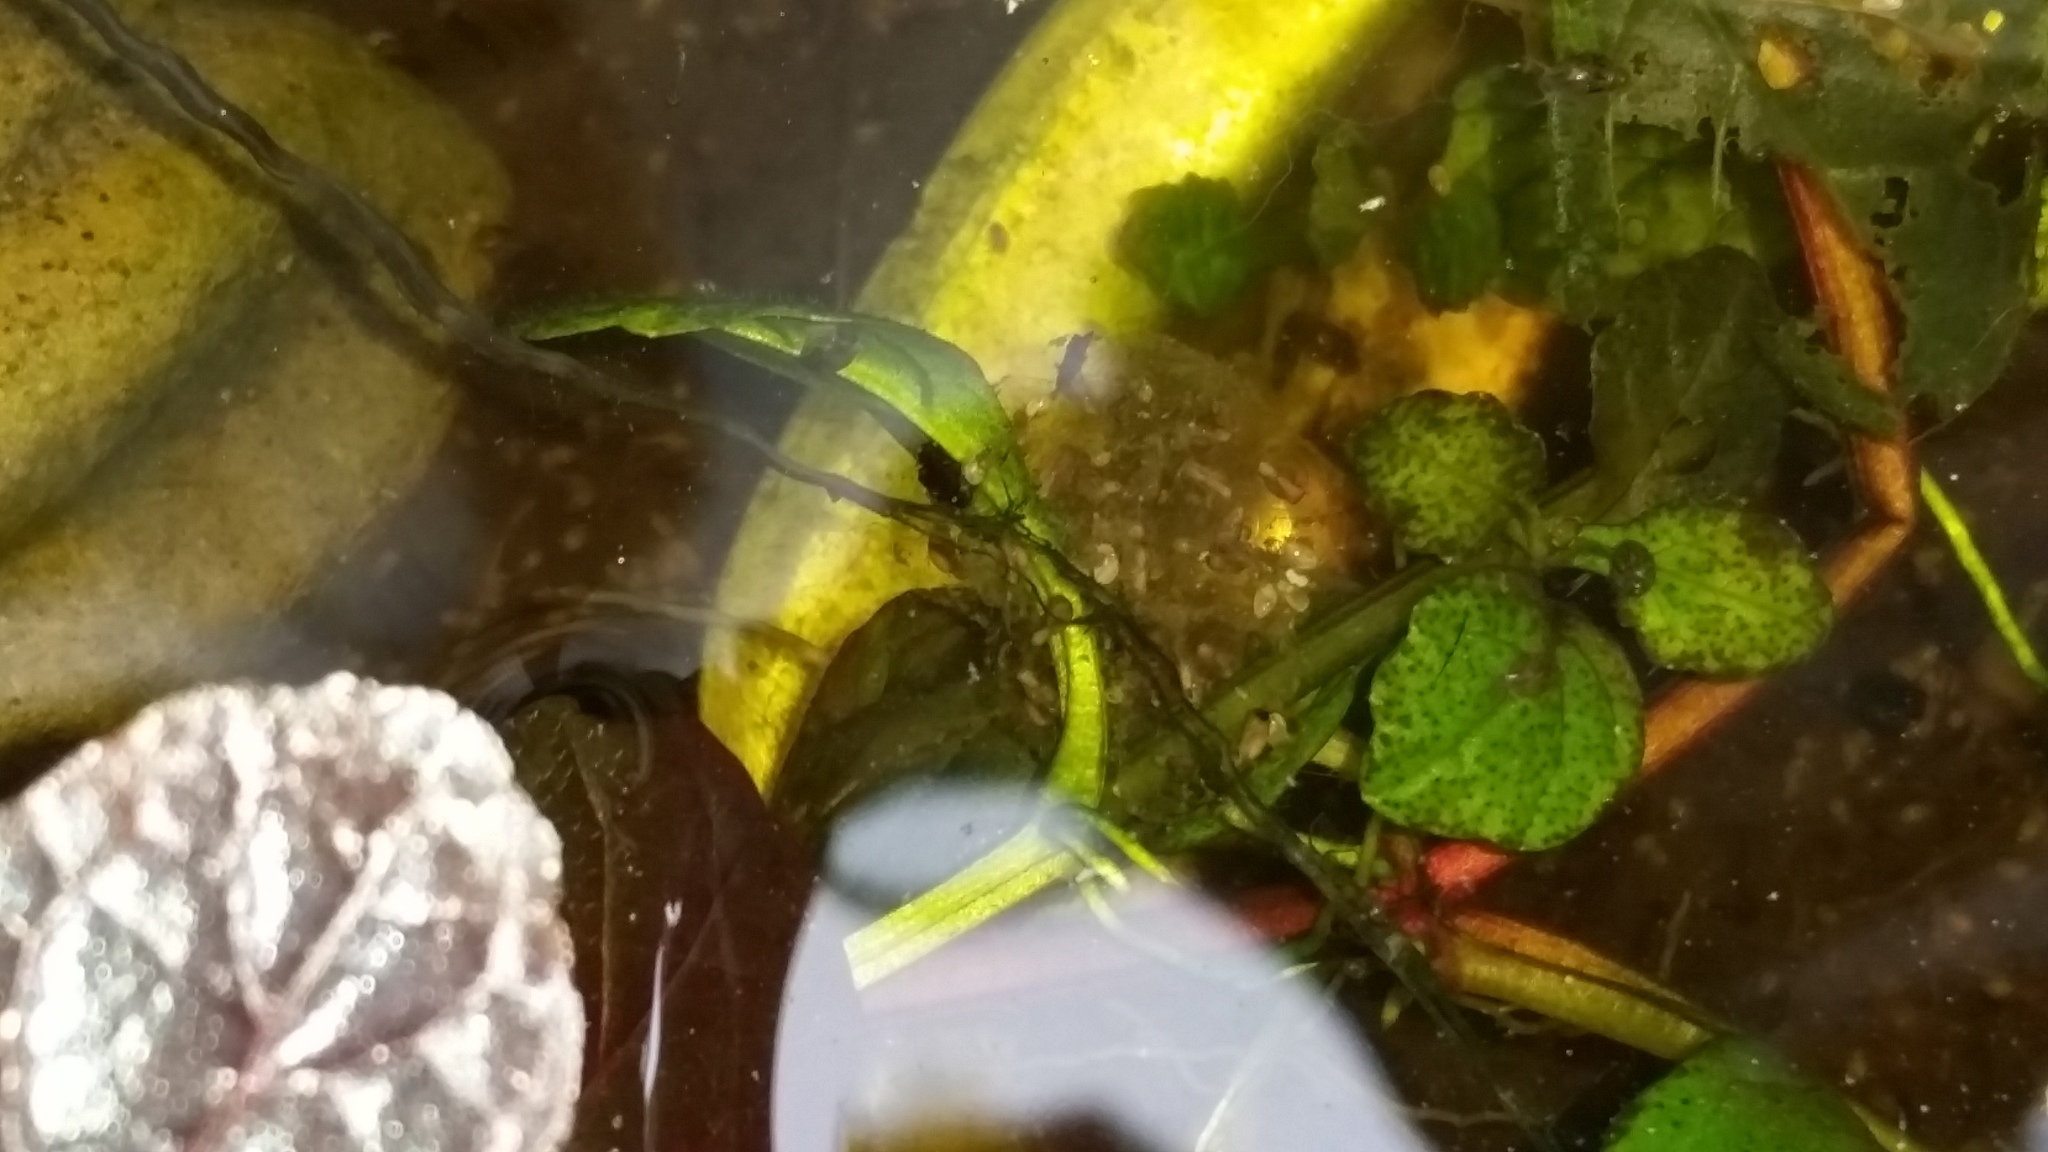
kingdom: Animalia
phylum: Chordata
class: Amphibia
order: Anura
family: Hylidae
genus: Pseudacris
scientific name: Pseudacris regilla
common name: Pacific chorus frog
